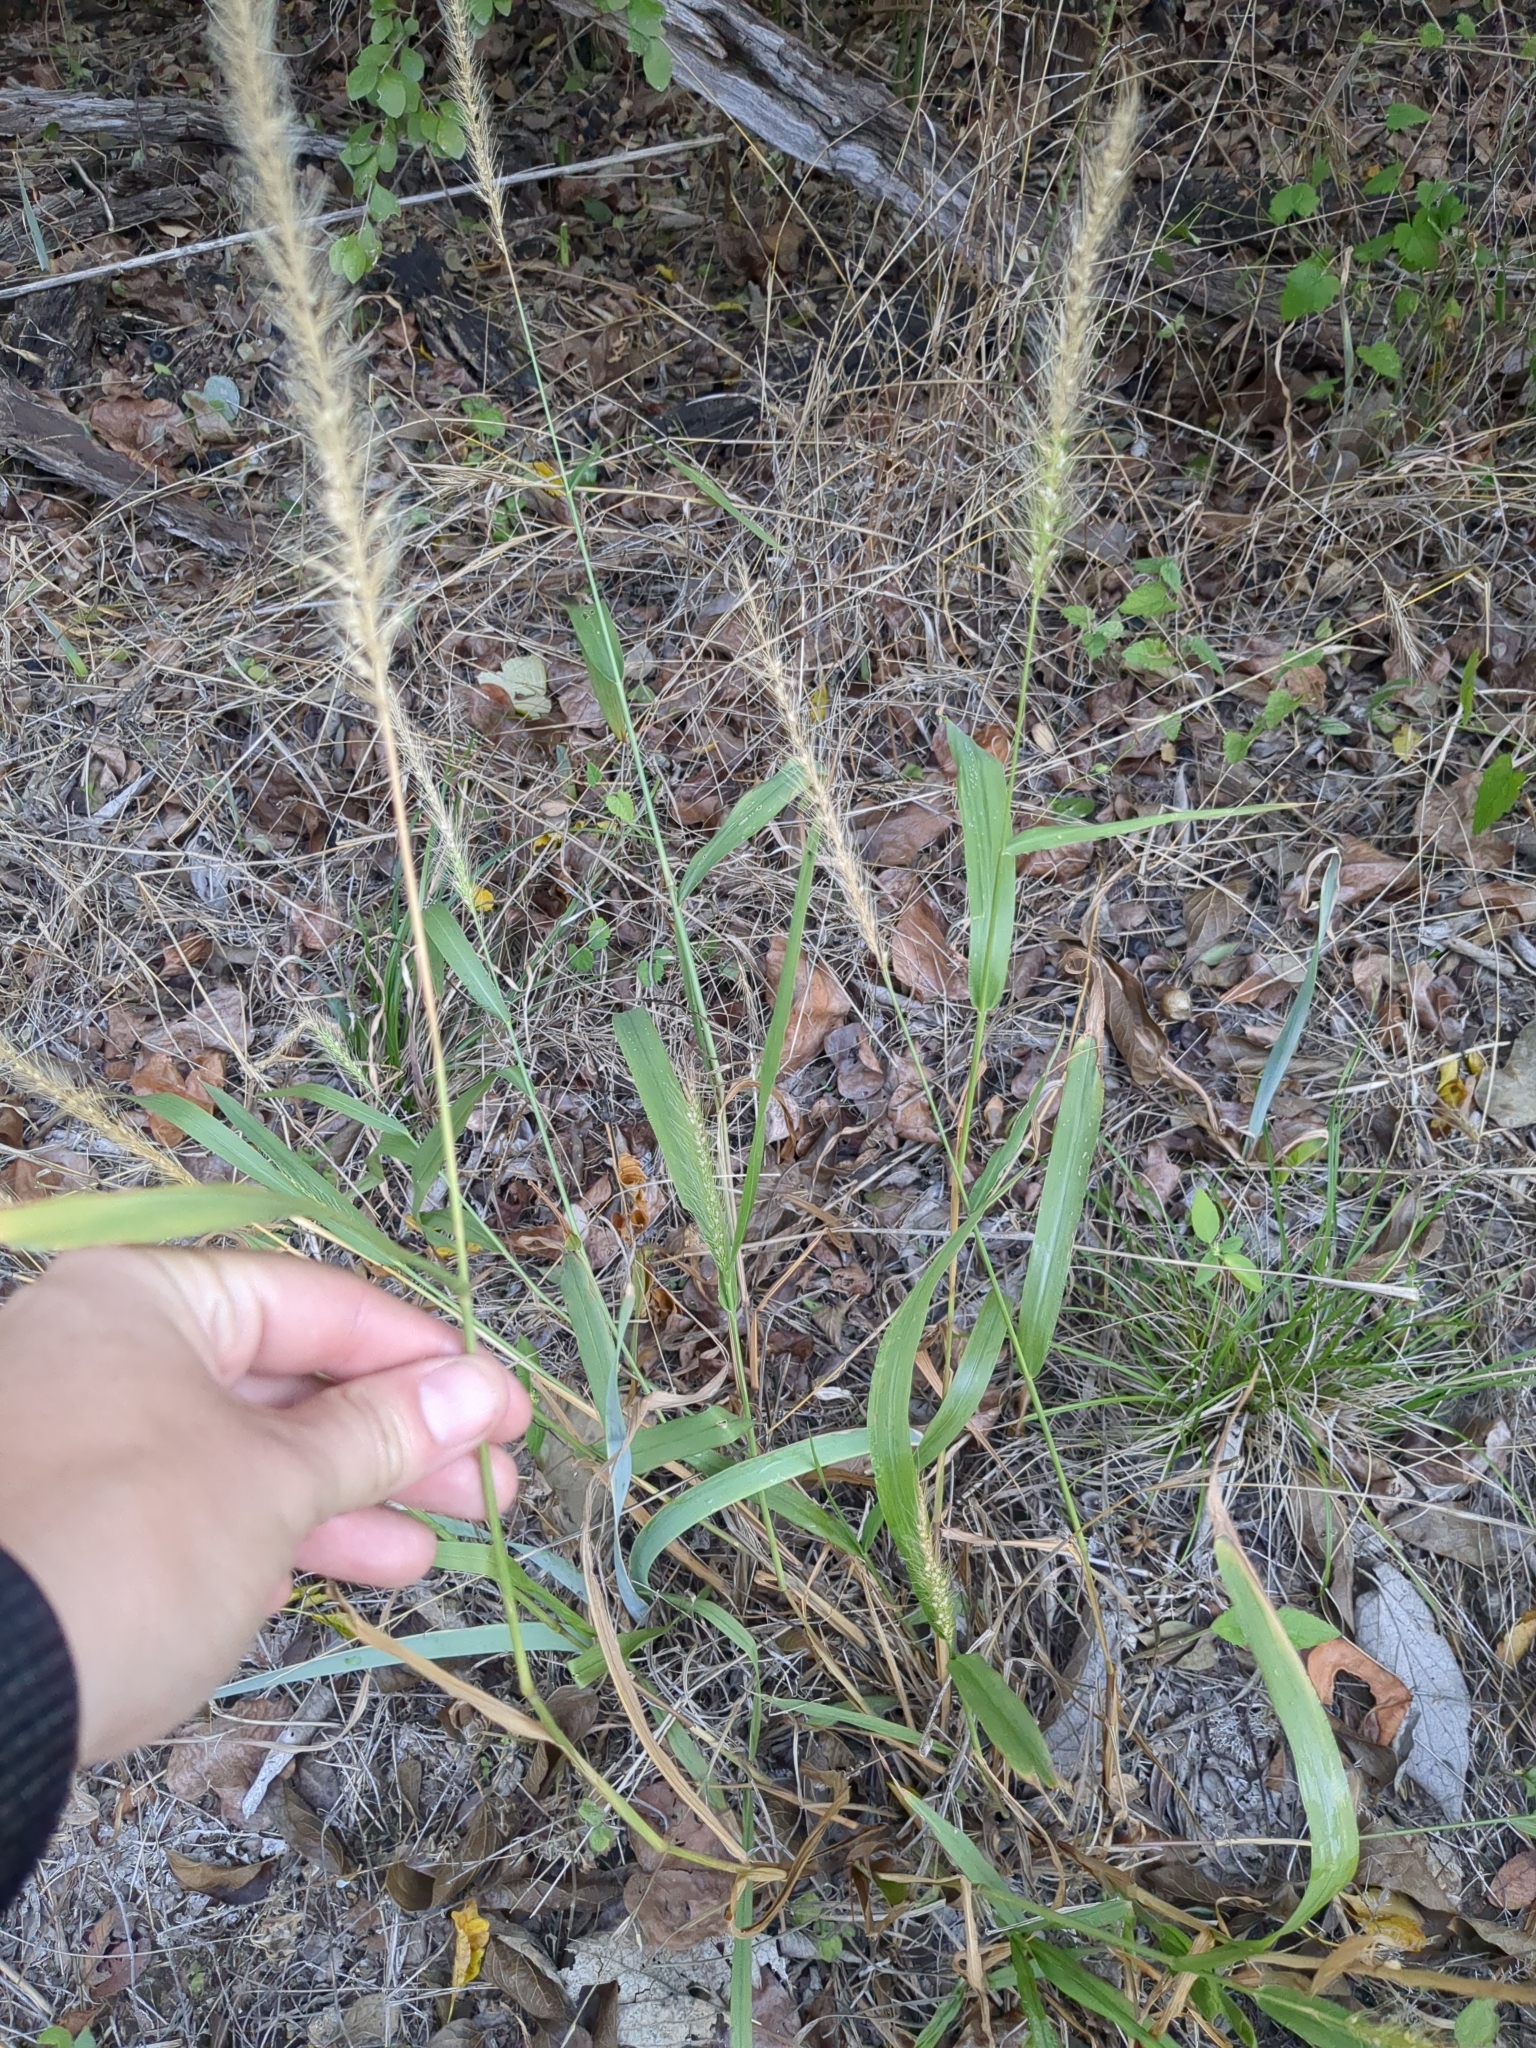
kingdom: Plantae
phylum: Tracheophyta
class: Liliopsida
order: Poales
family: Poaceae
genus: Setaria
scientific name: Setaria scheelei
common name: Southwestern bristle grass
